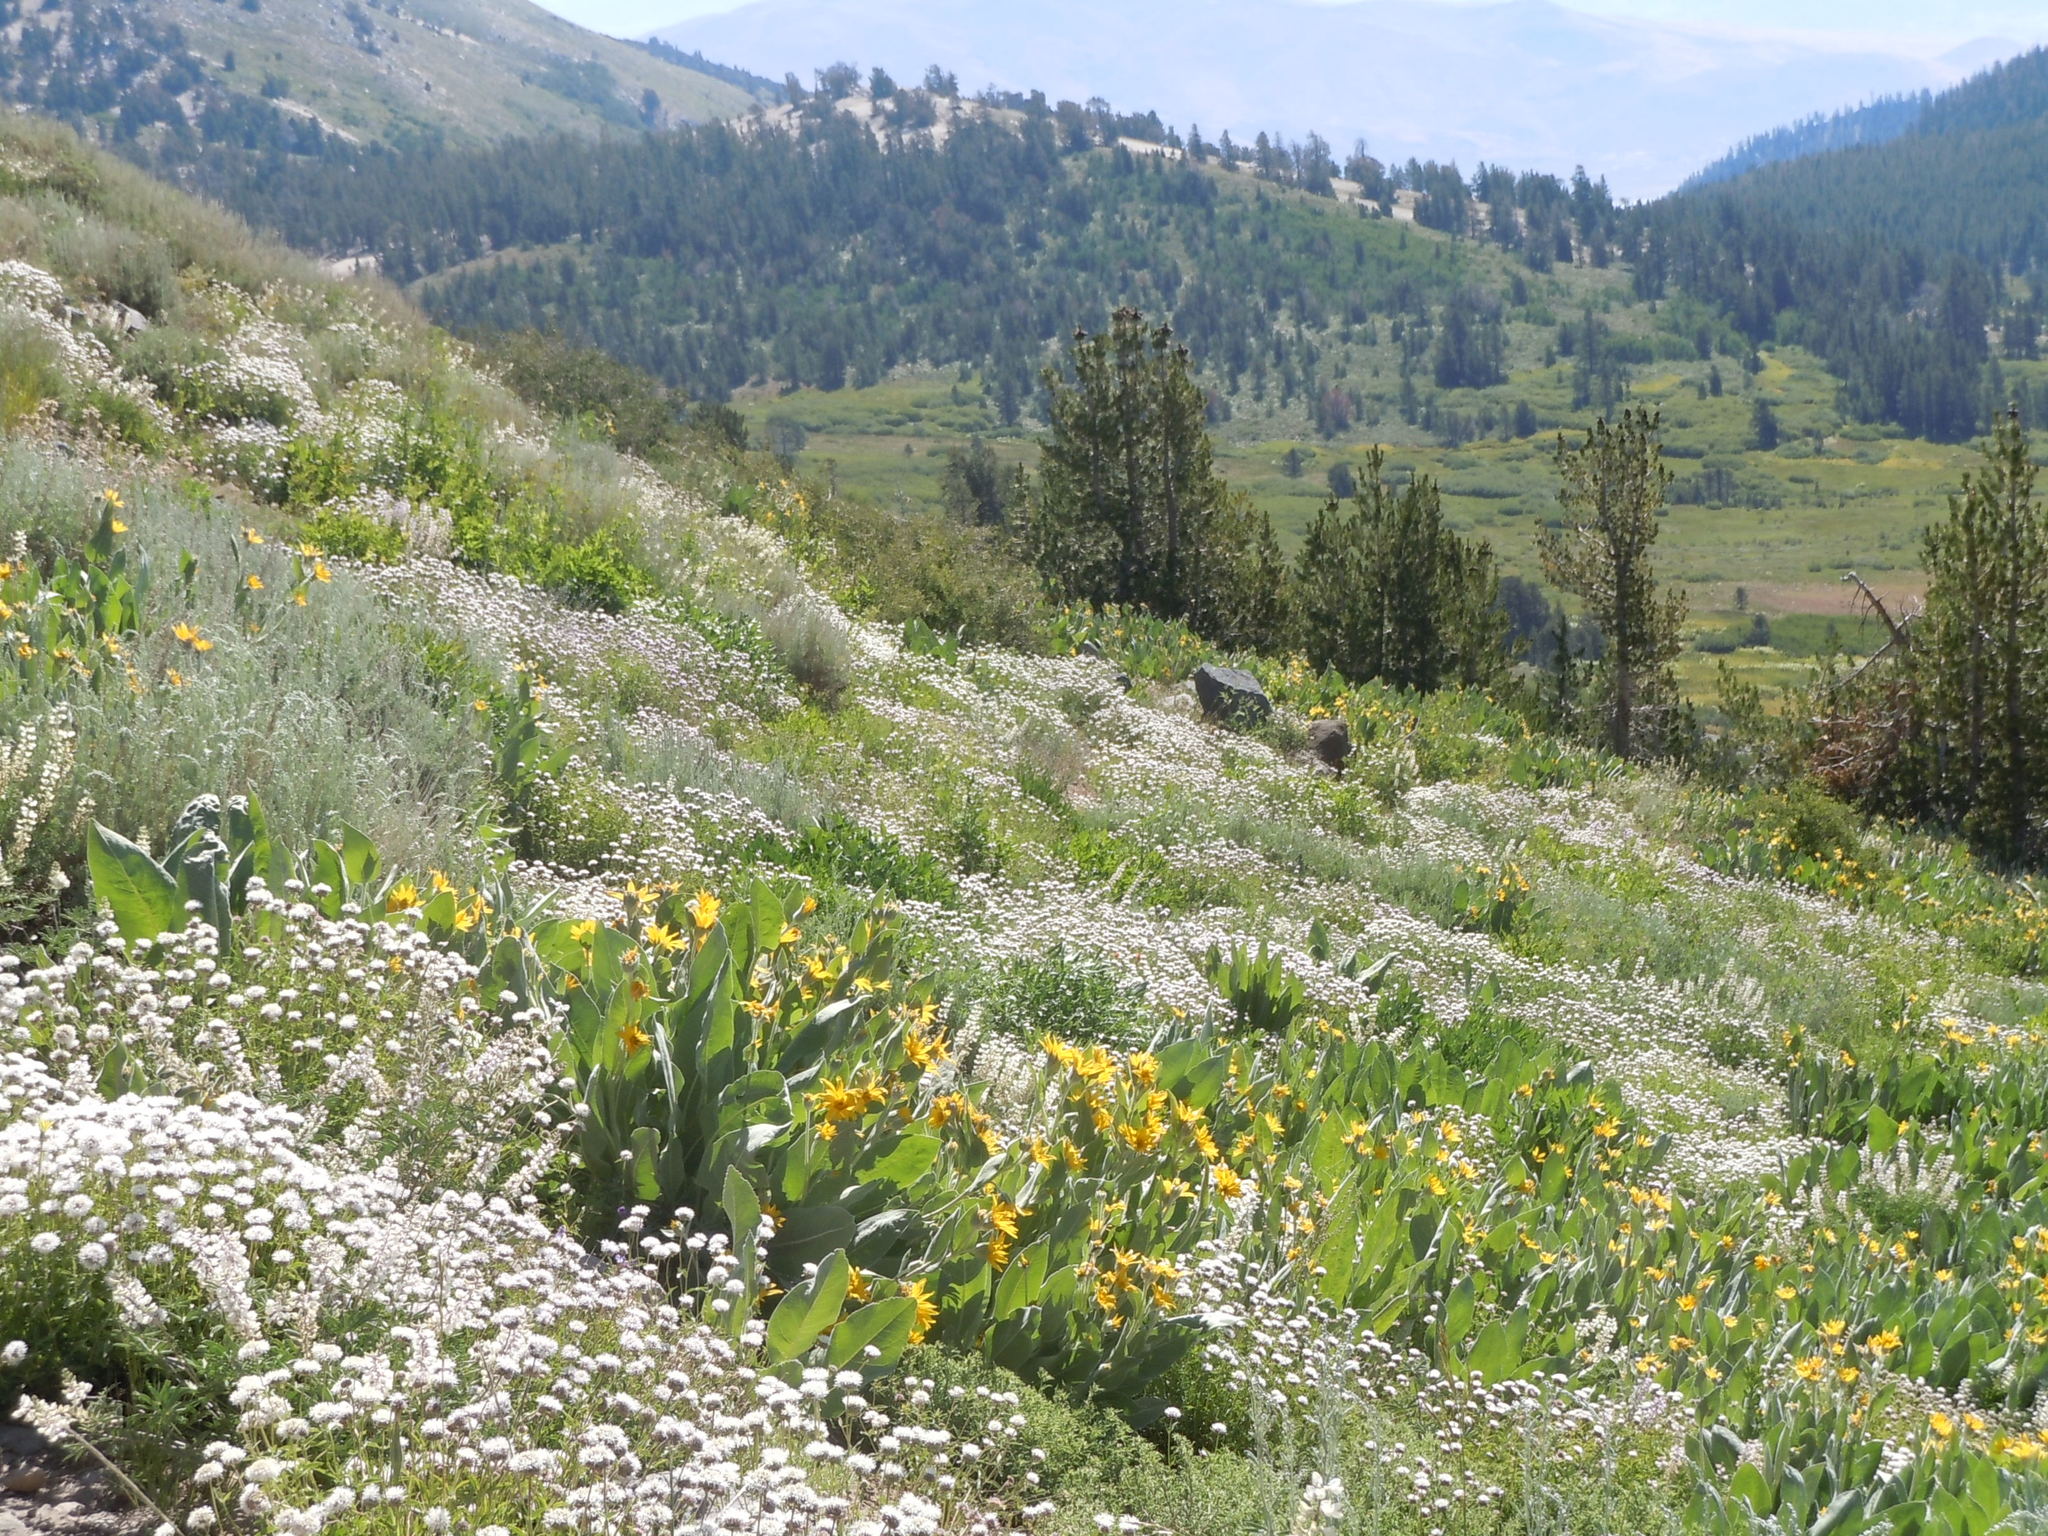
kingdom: Plantae
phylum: Tracheophyta
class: Magnoliopsida
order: Lamiales
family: Lamiaceae
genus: Monardella
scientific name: Monardella odoratissima
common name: Pacific monardella
